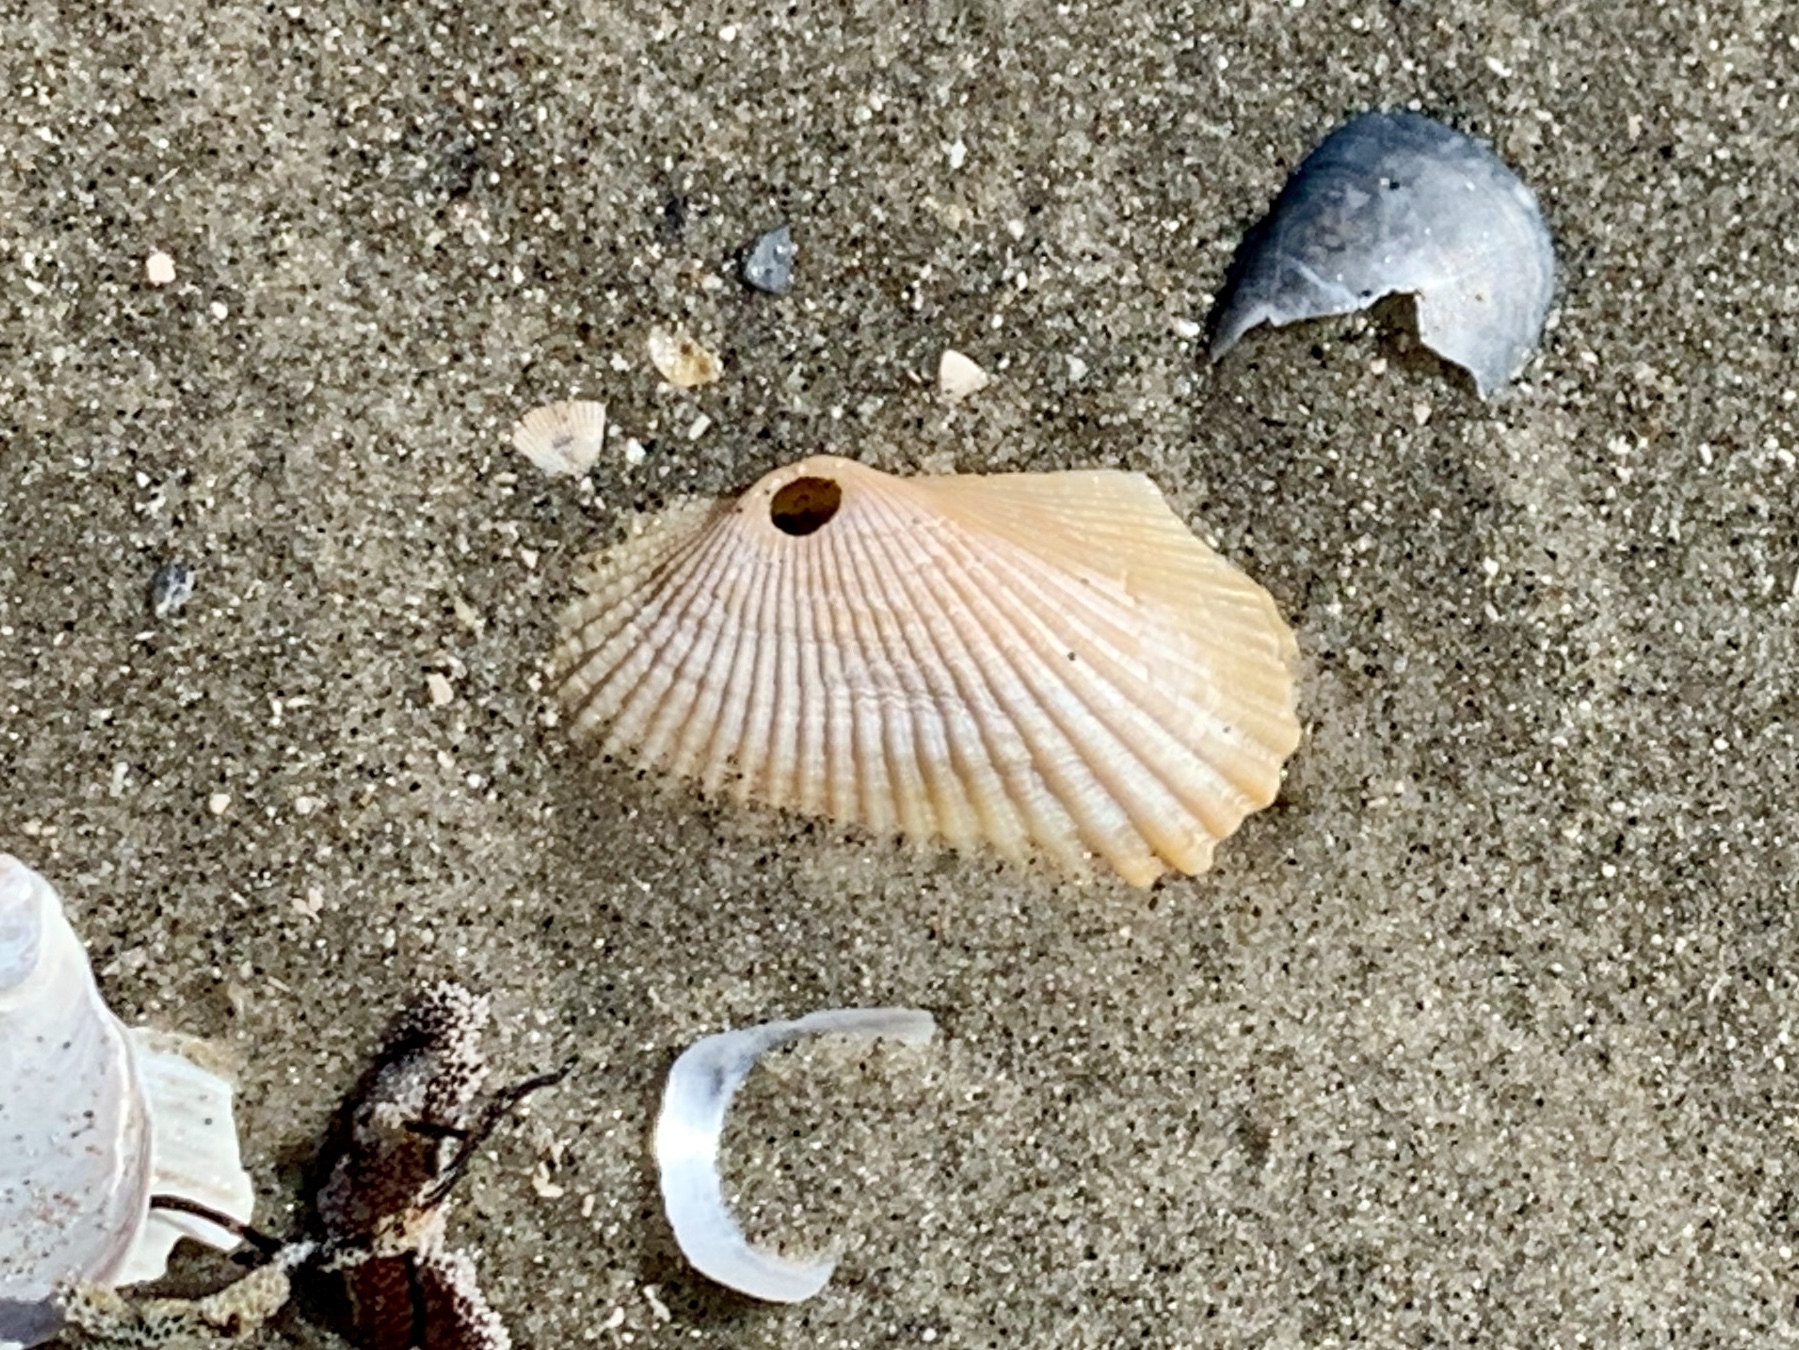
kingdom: Animalia
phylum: Mollusca
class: Bivalvia
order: Arcida
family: Arcidae
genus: Anadara
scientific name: Anadara transversa
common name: Transverse ark
